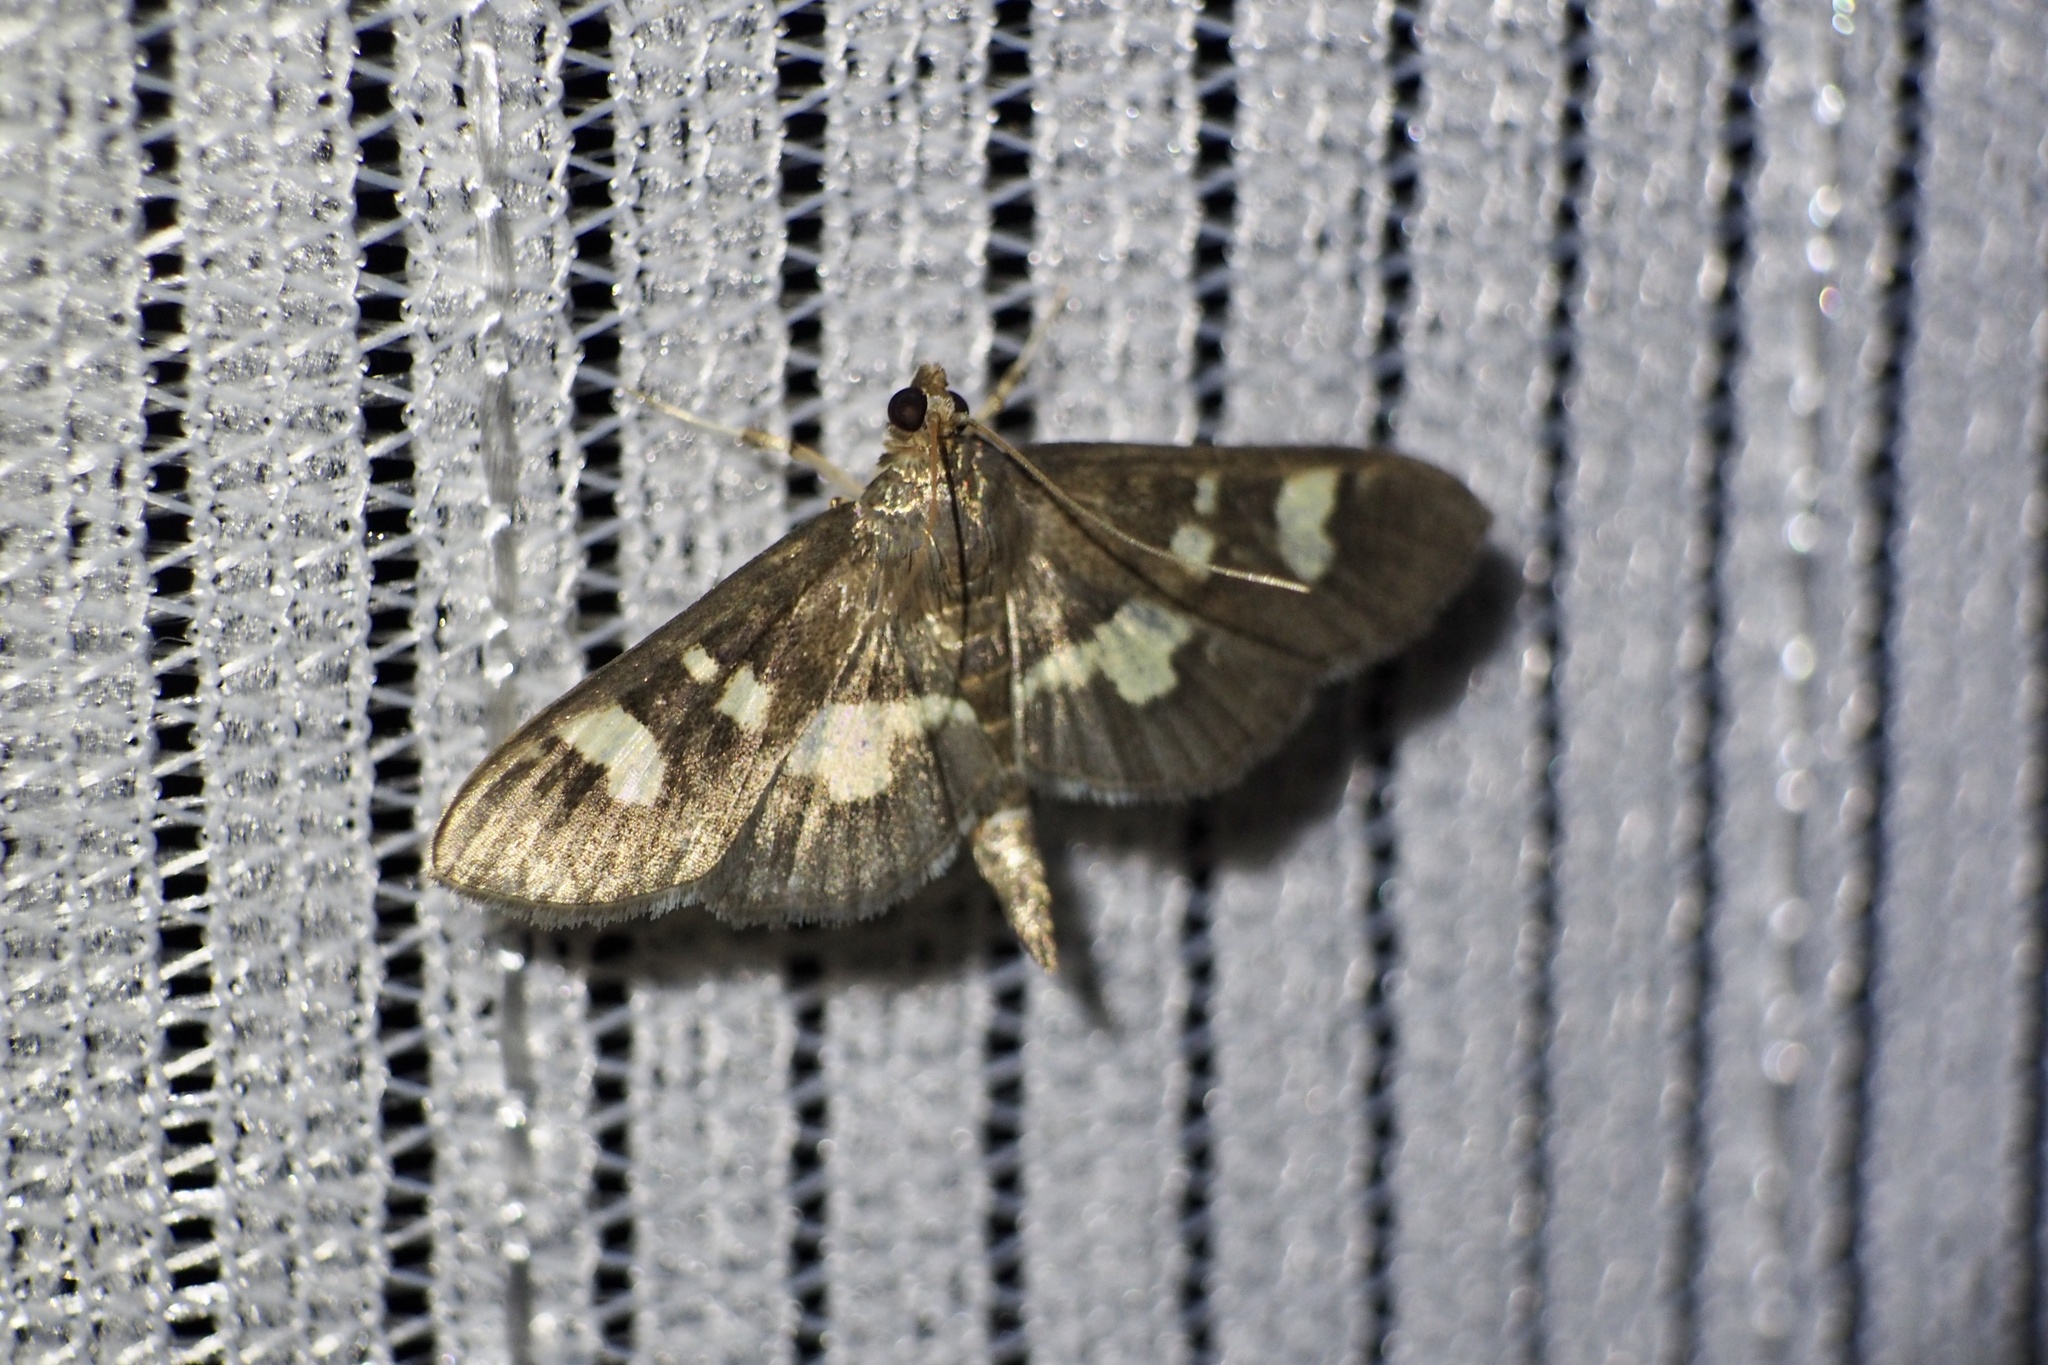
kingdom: Animalia
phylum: Arthropoda
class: Insecta
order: Lepidoptera
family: Crambidae
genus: Uresiphita
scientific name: Uresiphita tricolor
